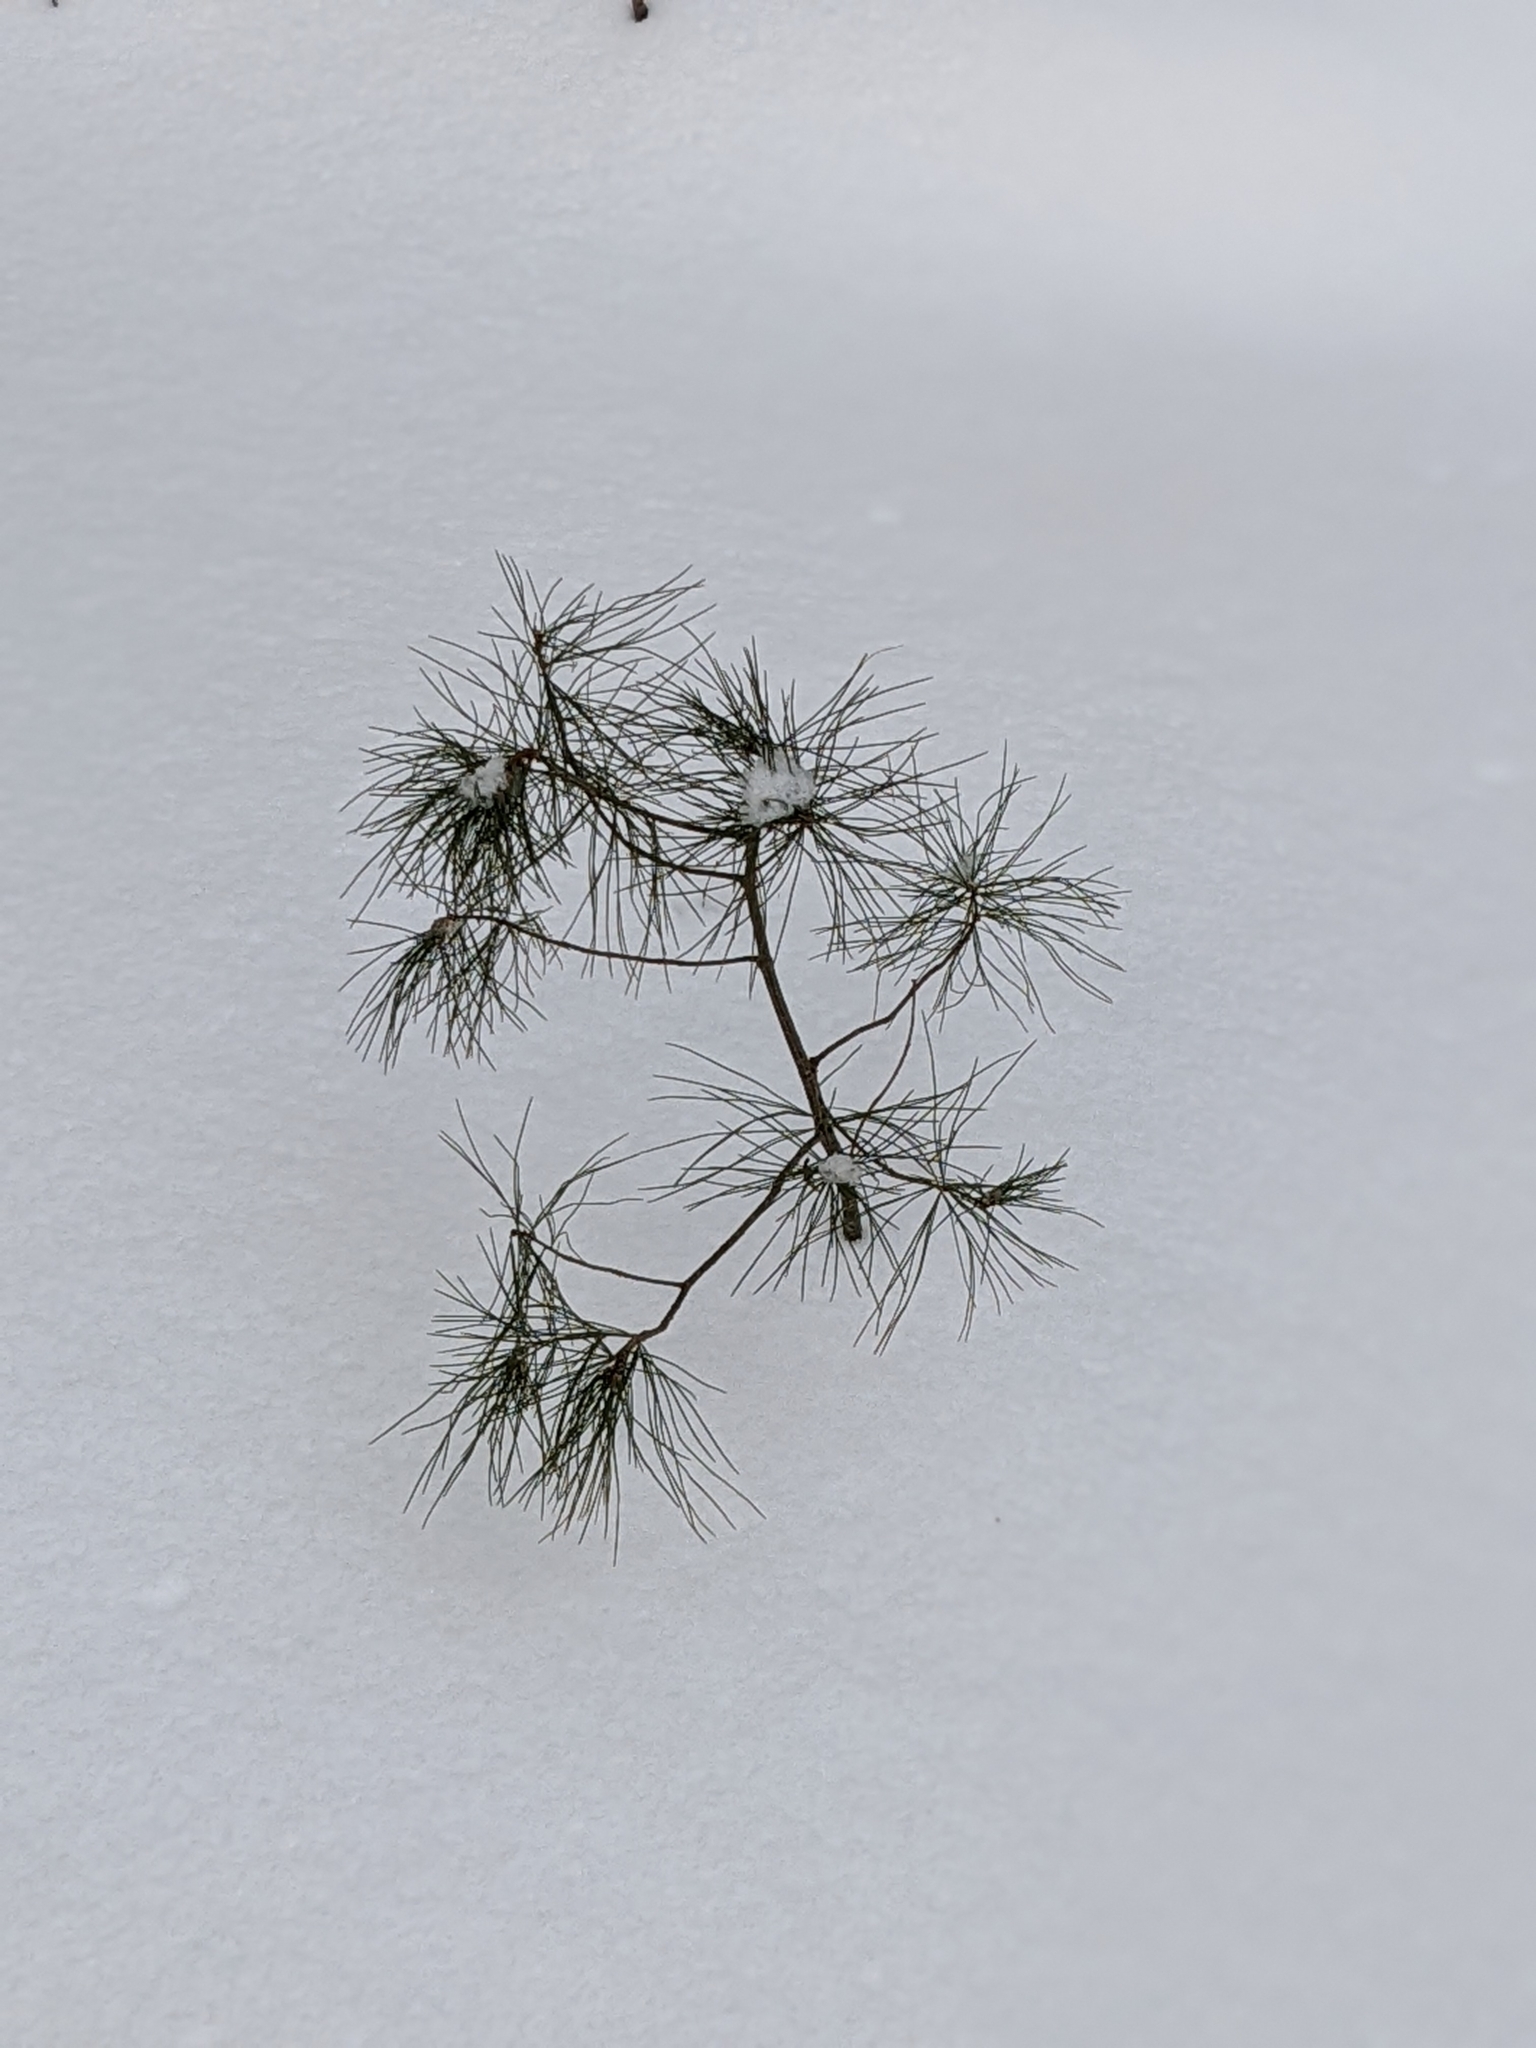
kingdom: Plantae
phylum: Tracheophyta
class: Pinopsida
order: Pinales
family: Pinaceae
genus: Pinus
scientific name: Pinus strobus
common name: Weymouth pine
